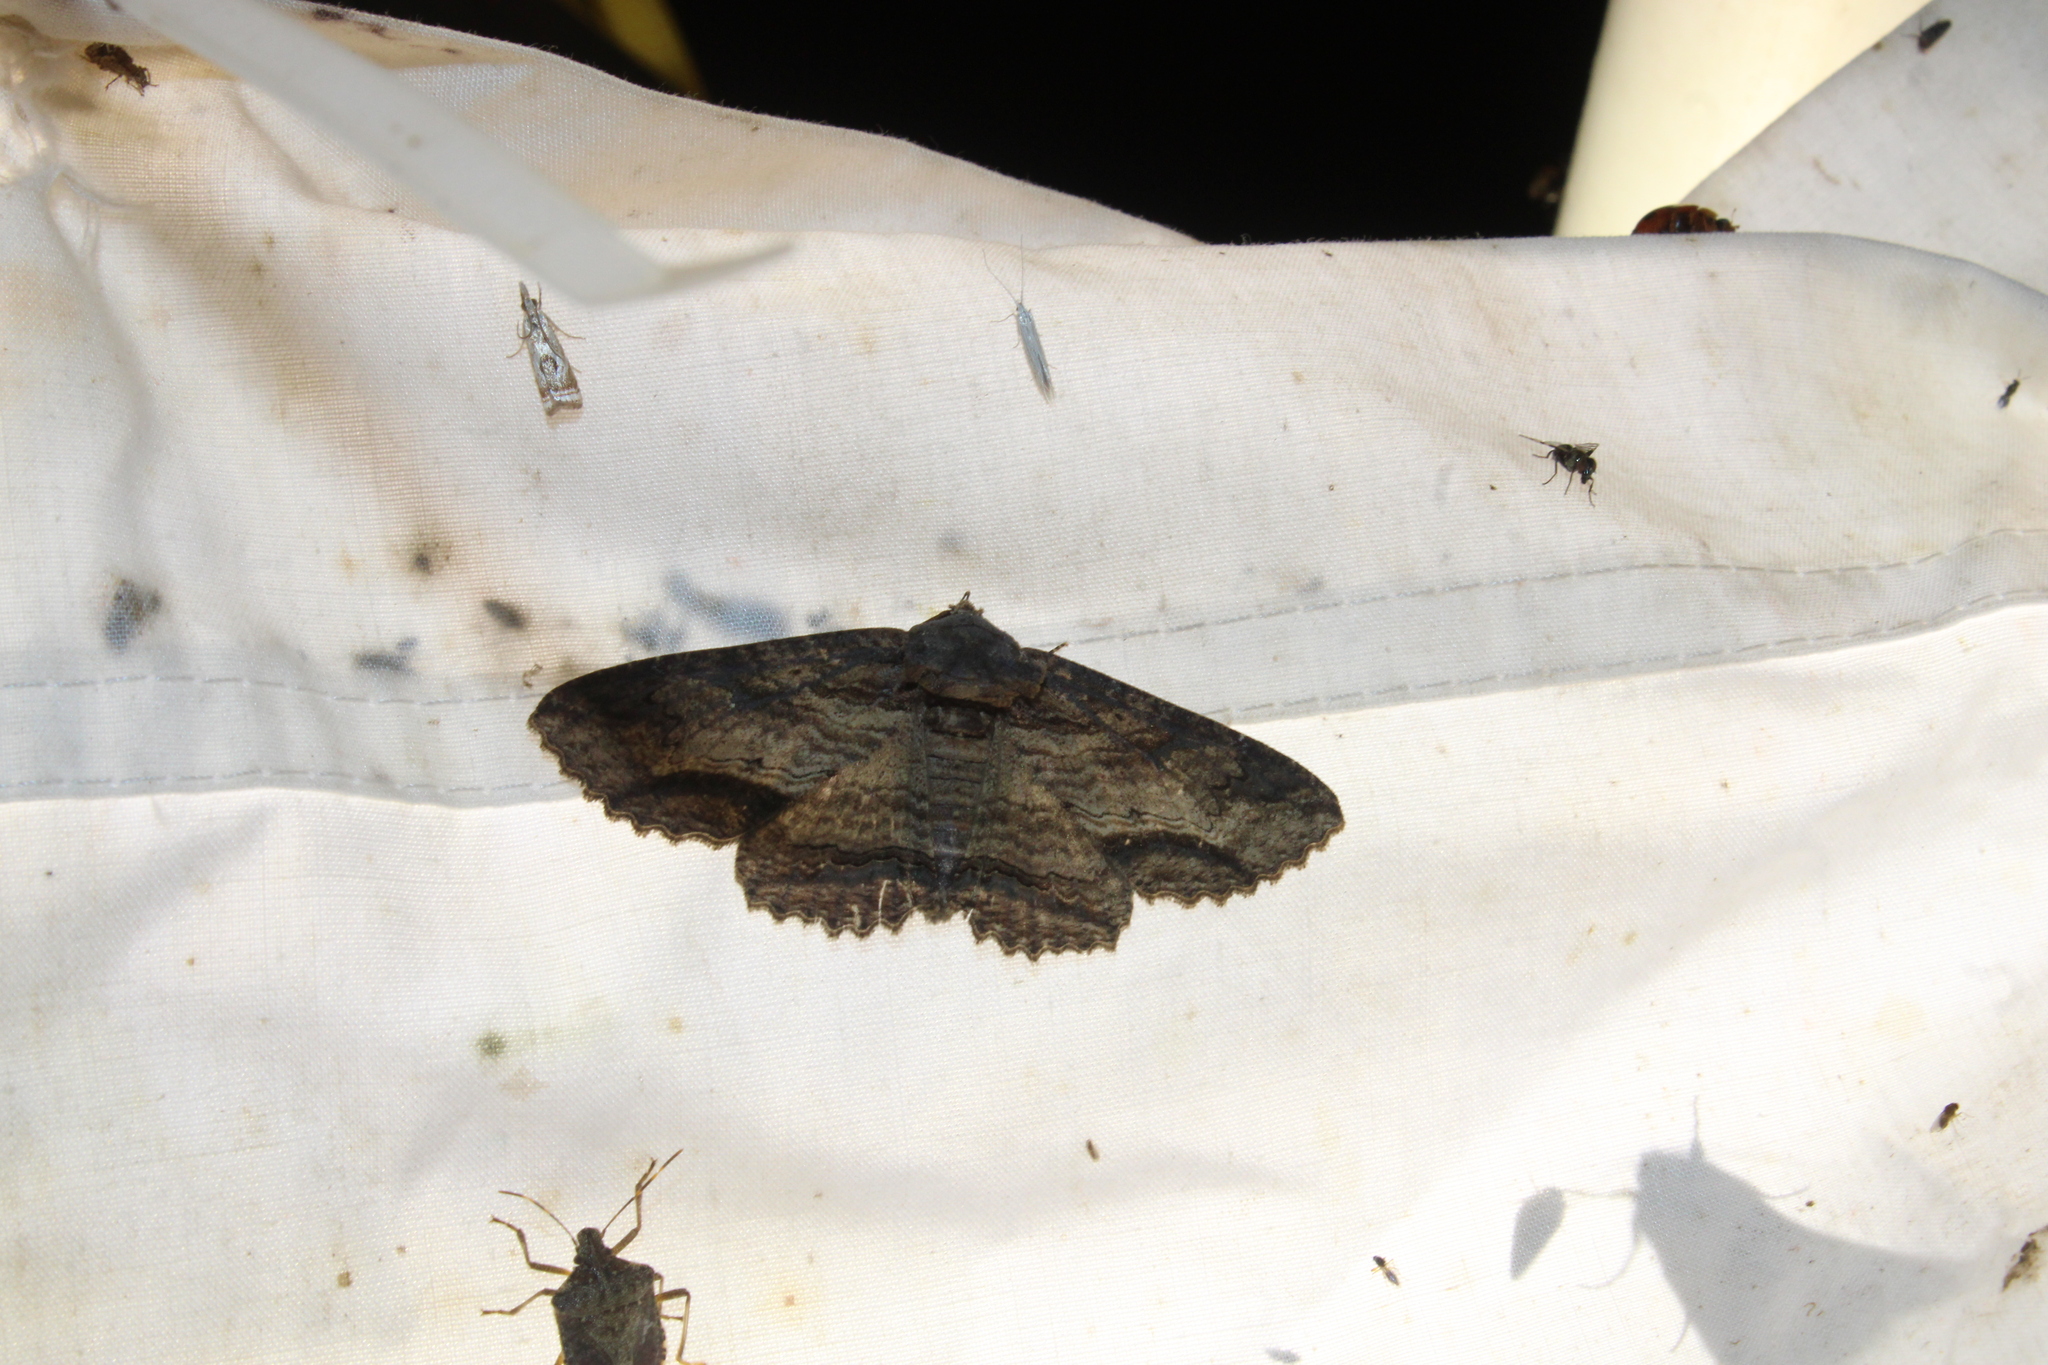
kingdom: Animalia
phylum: Arthropoda
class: Insecta
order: Lepidoptera
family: Erebidae
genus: Zale
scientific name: Zale lunata
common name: Lunate zale moth
